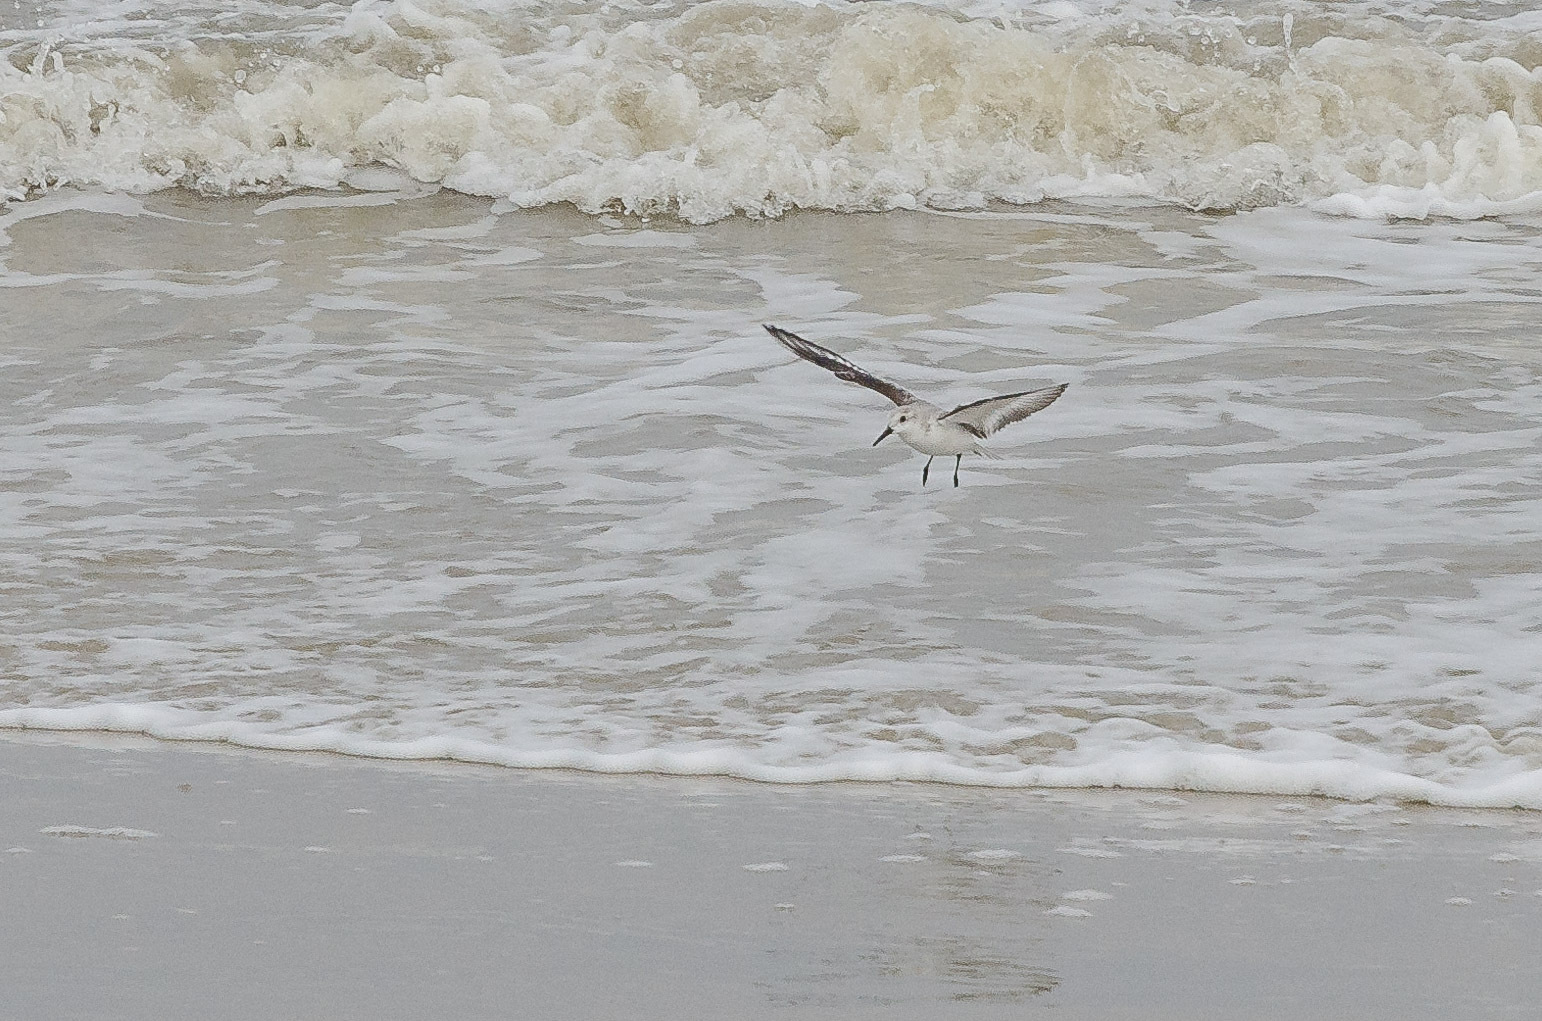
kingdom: Animalia
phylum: Chordata
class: Aves
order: Charadriiformes
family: Scolopacidae
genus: Calidris
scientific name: Calidris alba
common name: Sanderling
